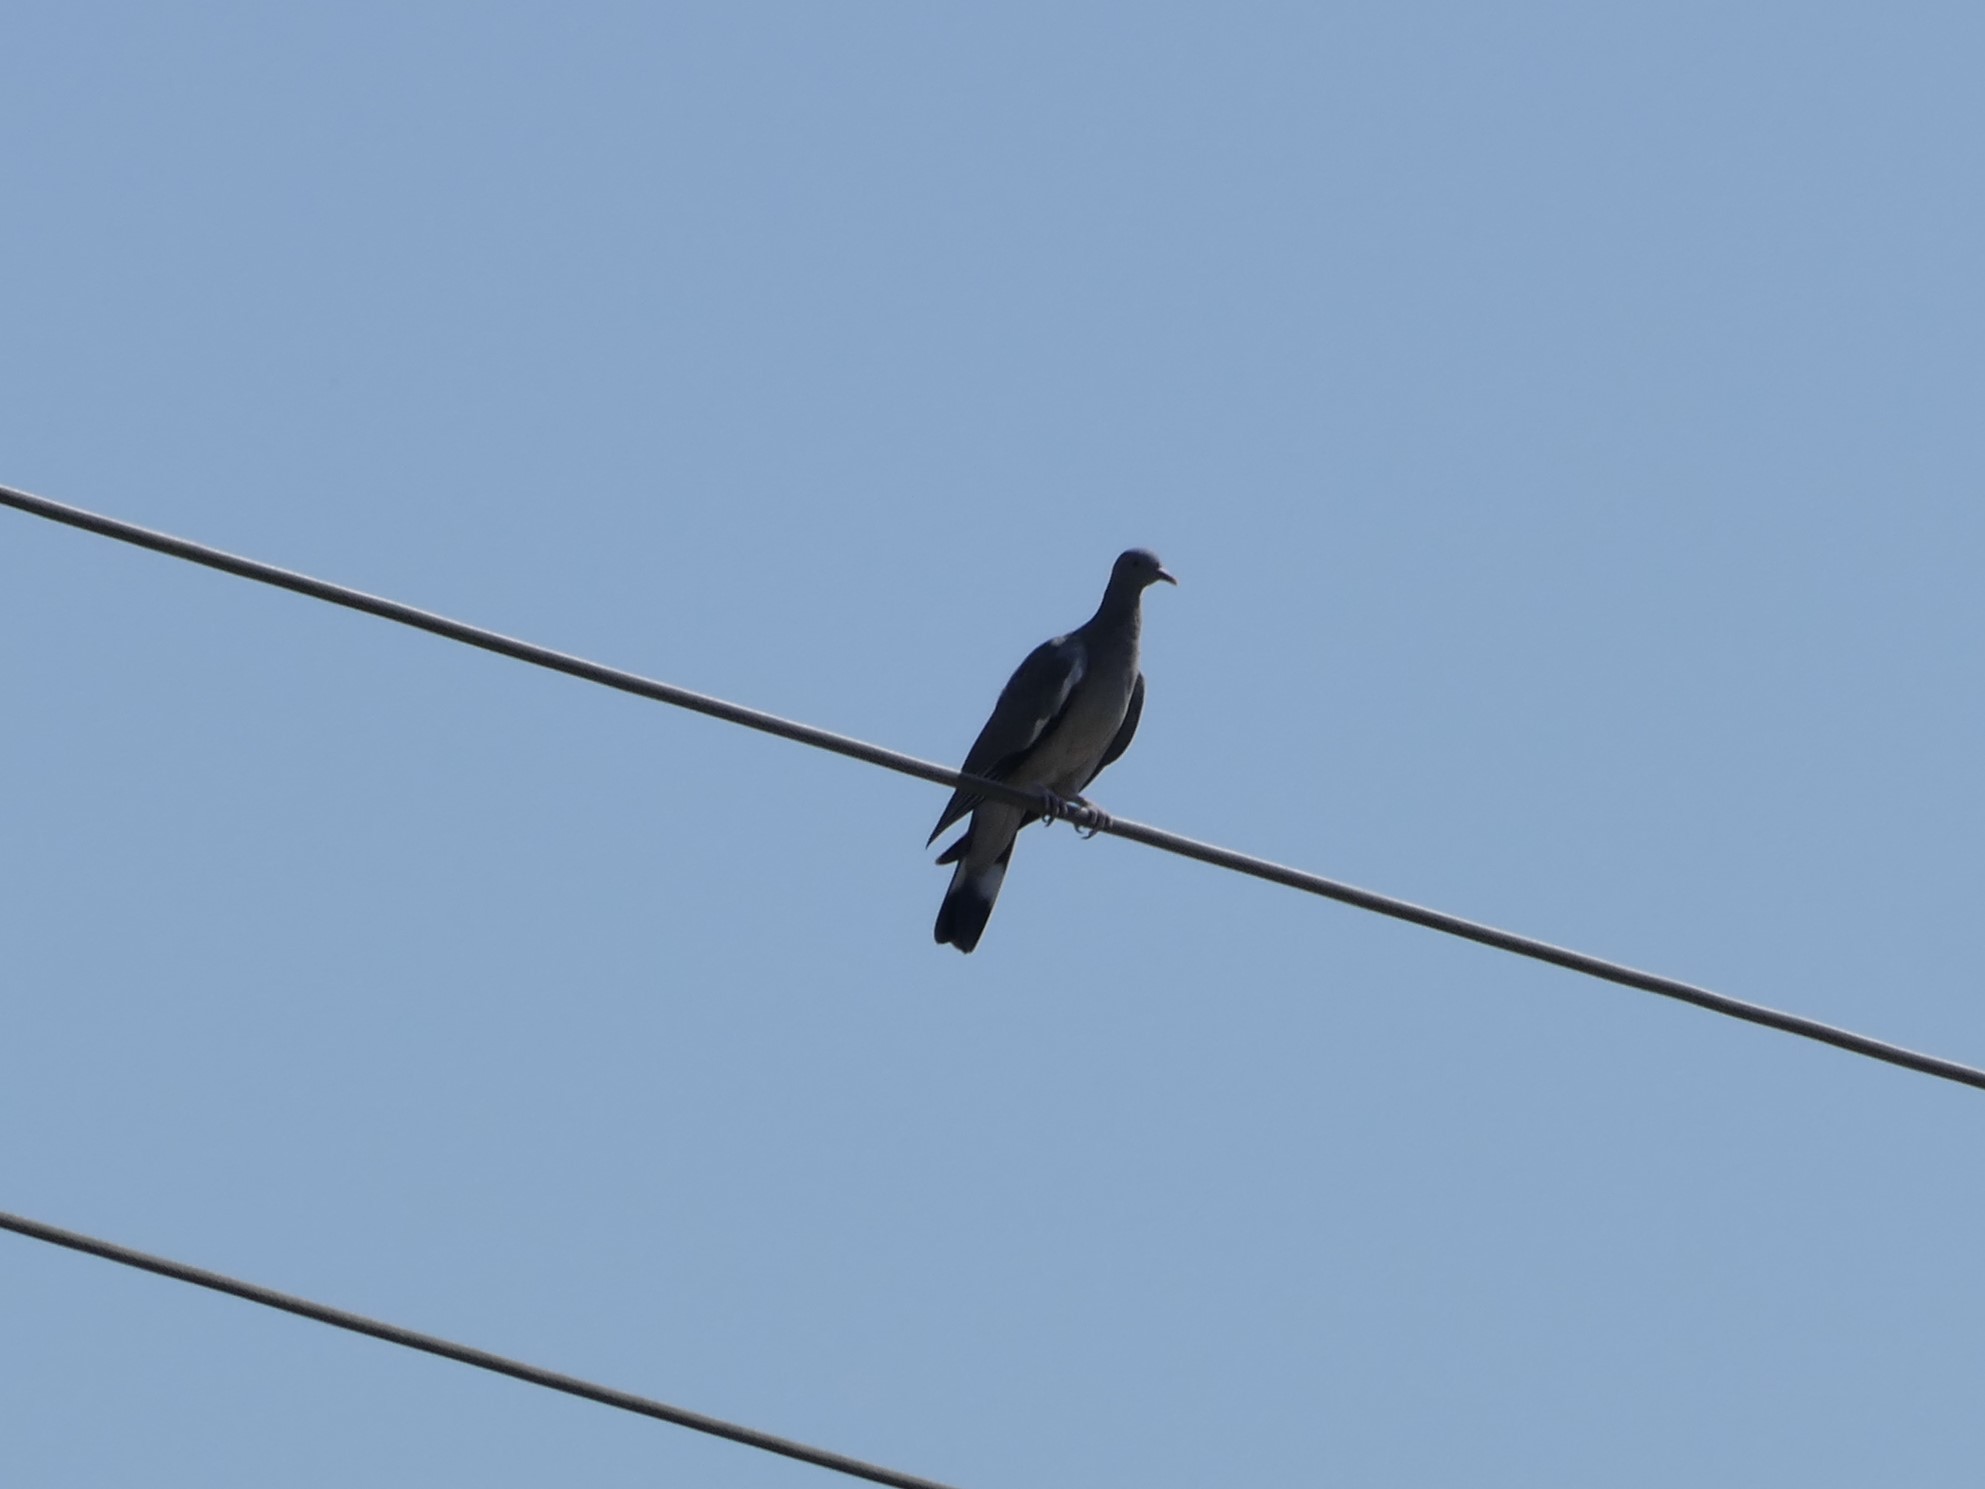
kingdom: Animalia
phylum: Chordata
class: Aves
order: Columbiformes
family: Columbidae
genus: Columba
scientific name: Columba palumbus
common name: Common wood pigeon
